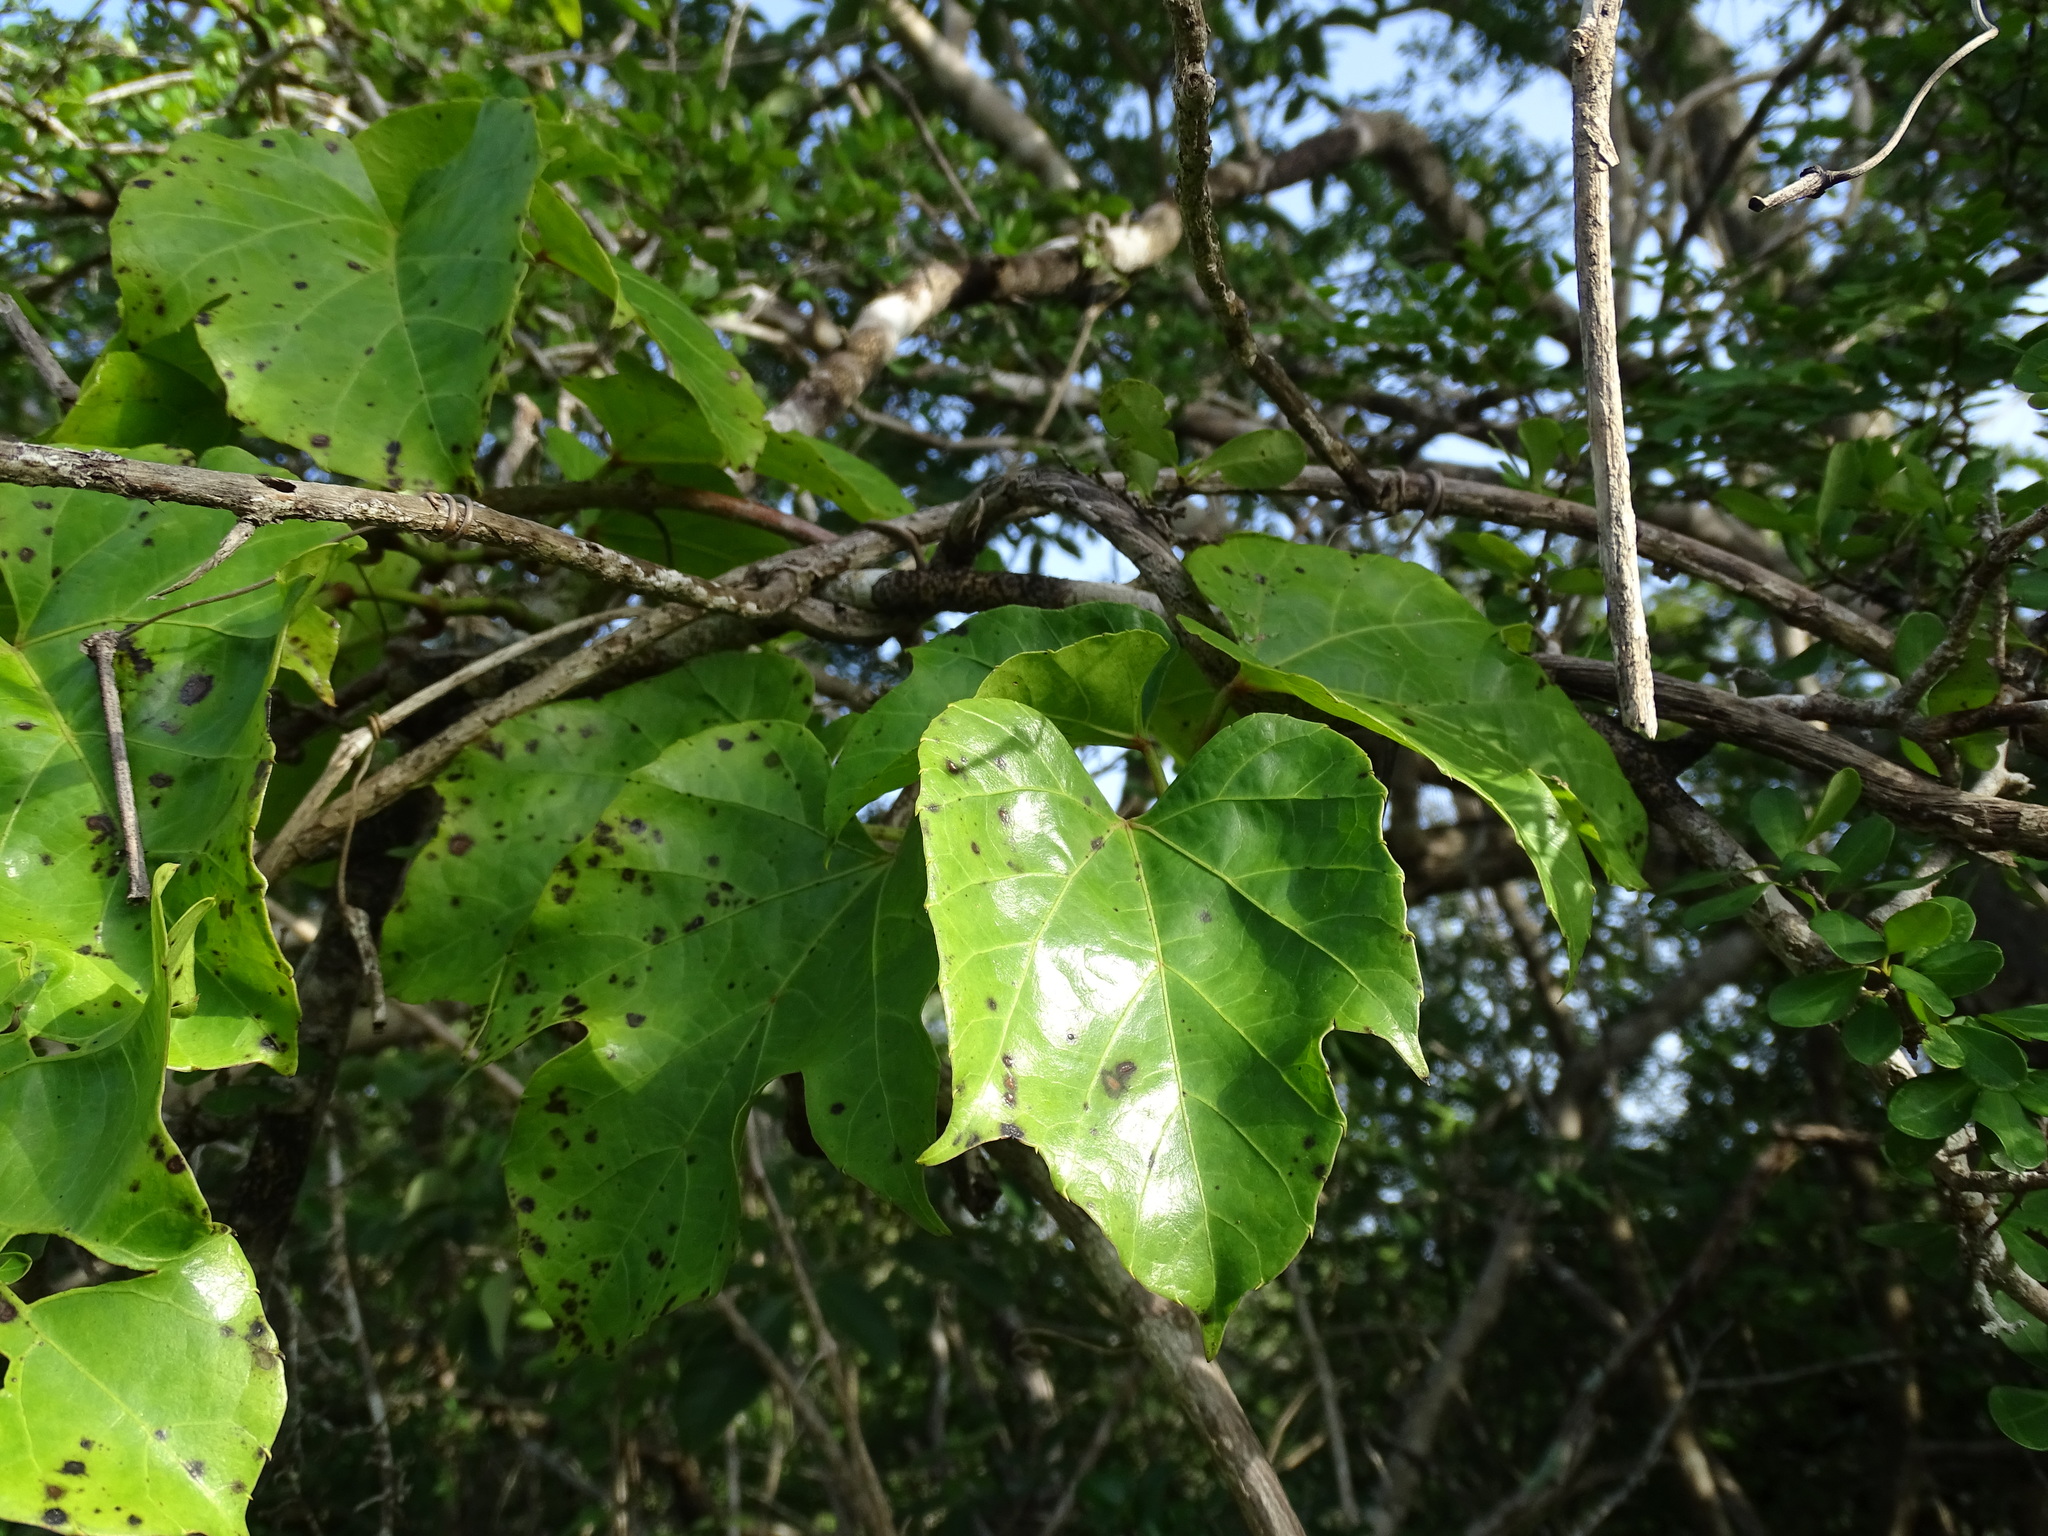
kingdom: Plantae
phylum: Tracheophyta
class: Magnoliopsida
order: Vitales
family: Vitaceae
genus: Cissus
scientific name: Cissus gossypiifolia
